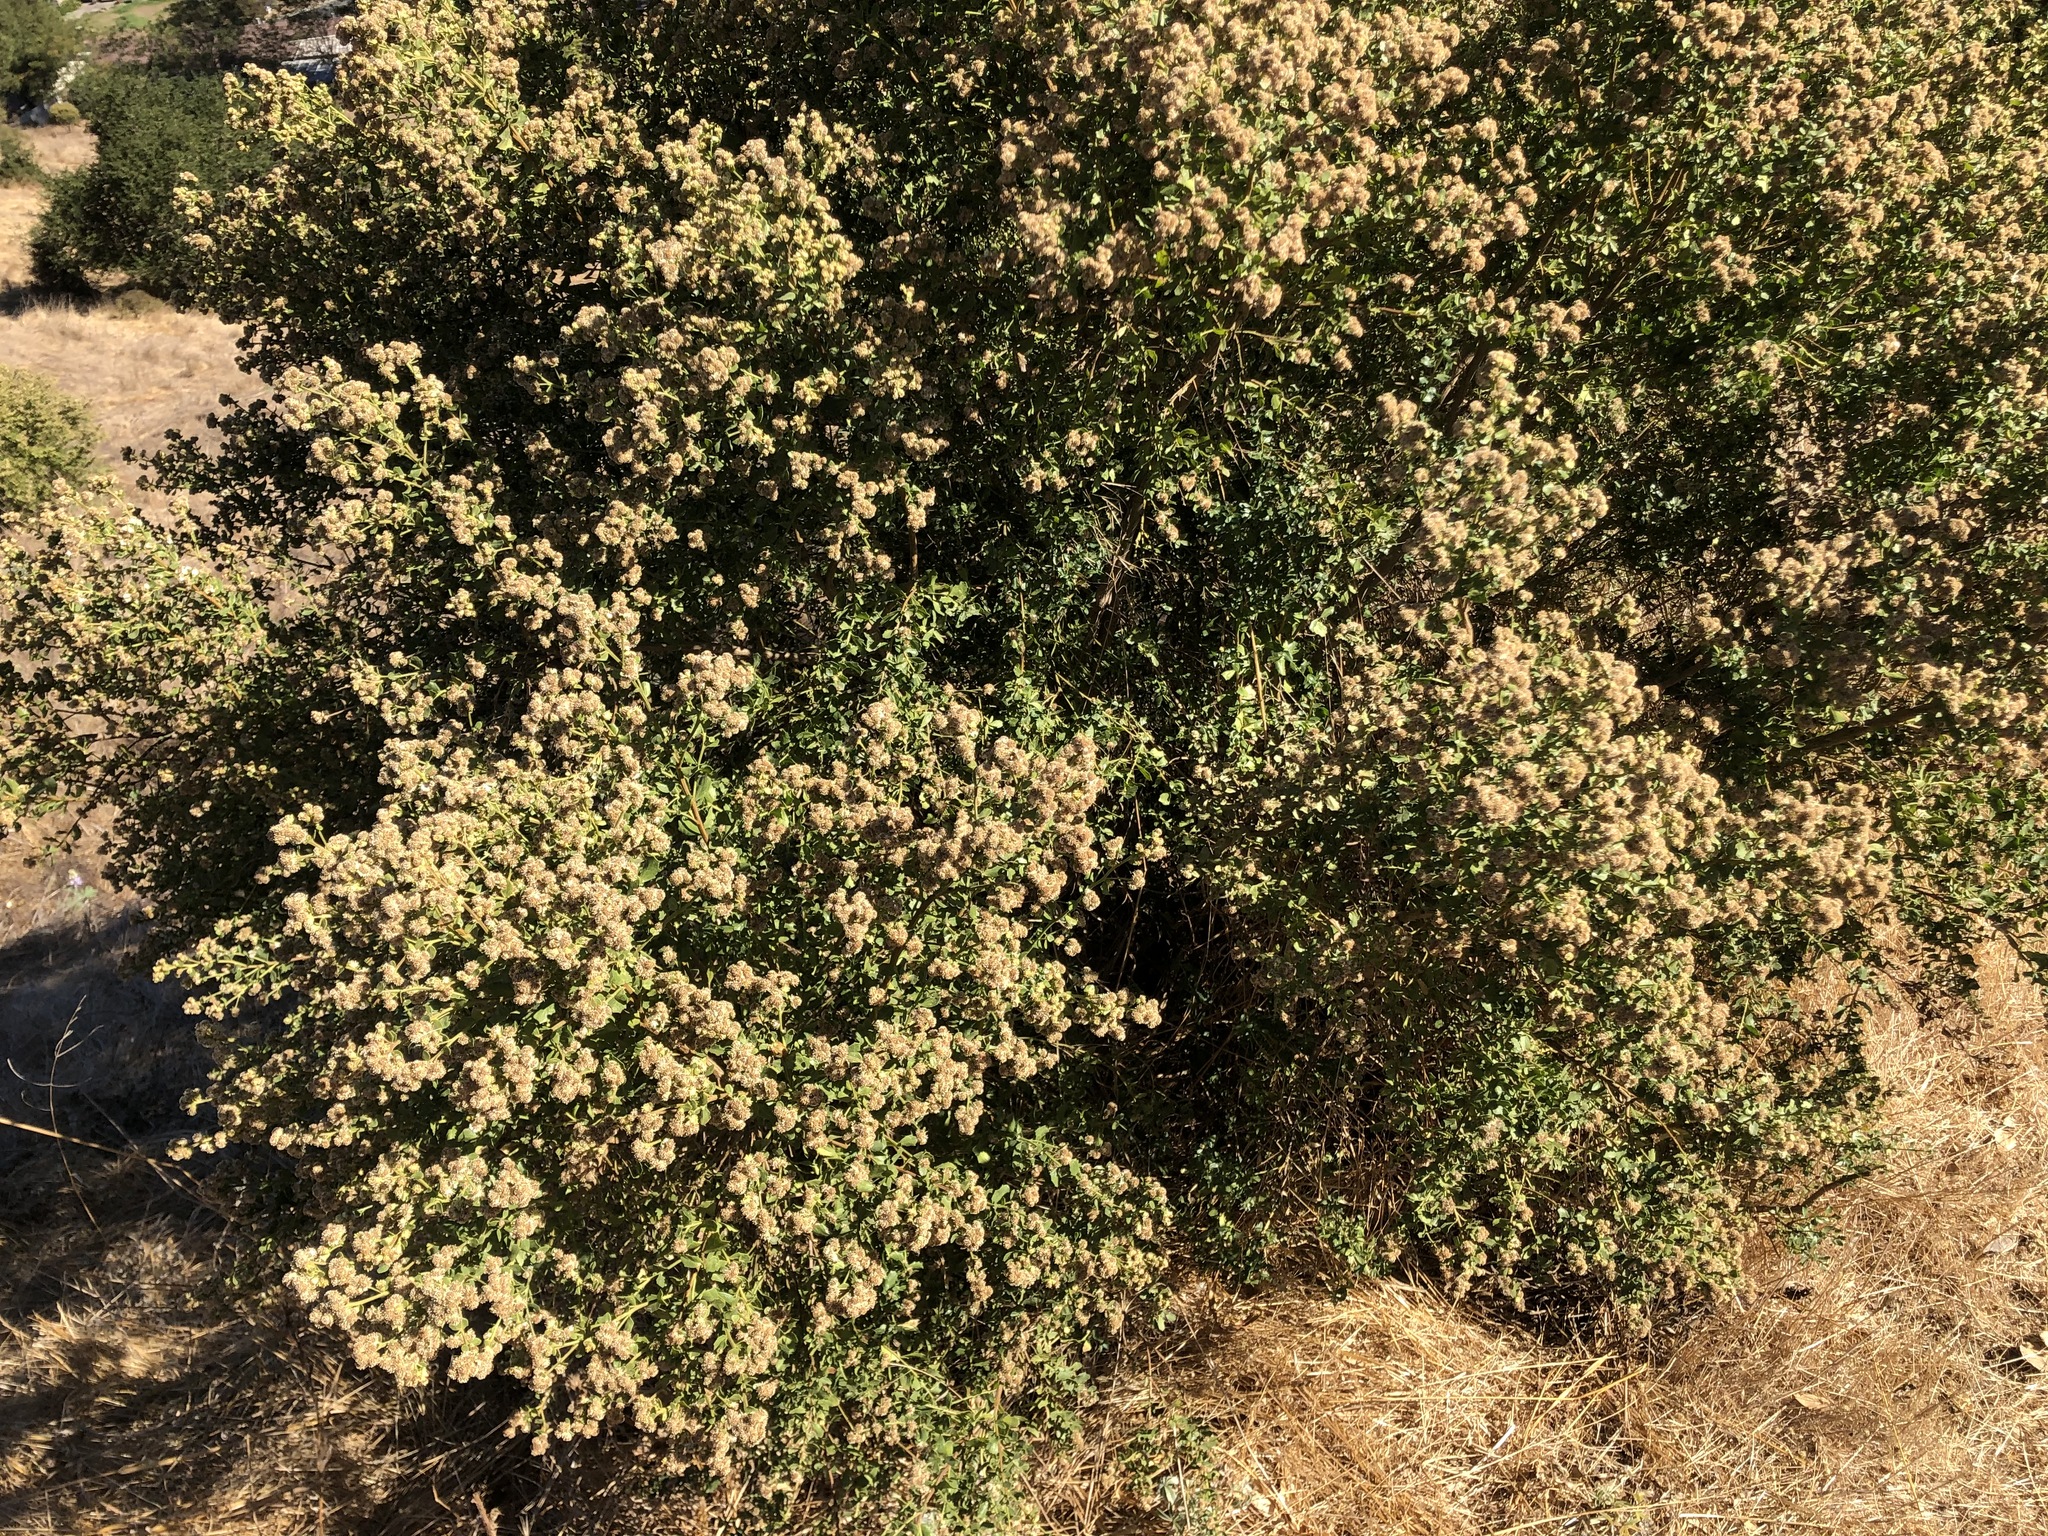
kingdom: Plantae
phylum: Tracheophyta
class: Magnoliopsida
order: Asterales
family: Asteraceae
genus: Baccharis
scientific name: Baccharis pilularis
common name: Coyotebrush
